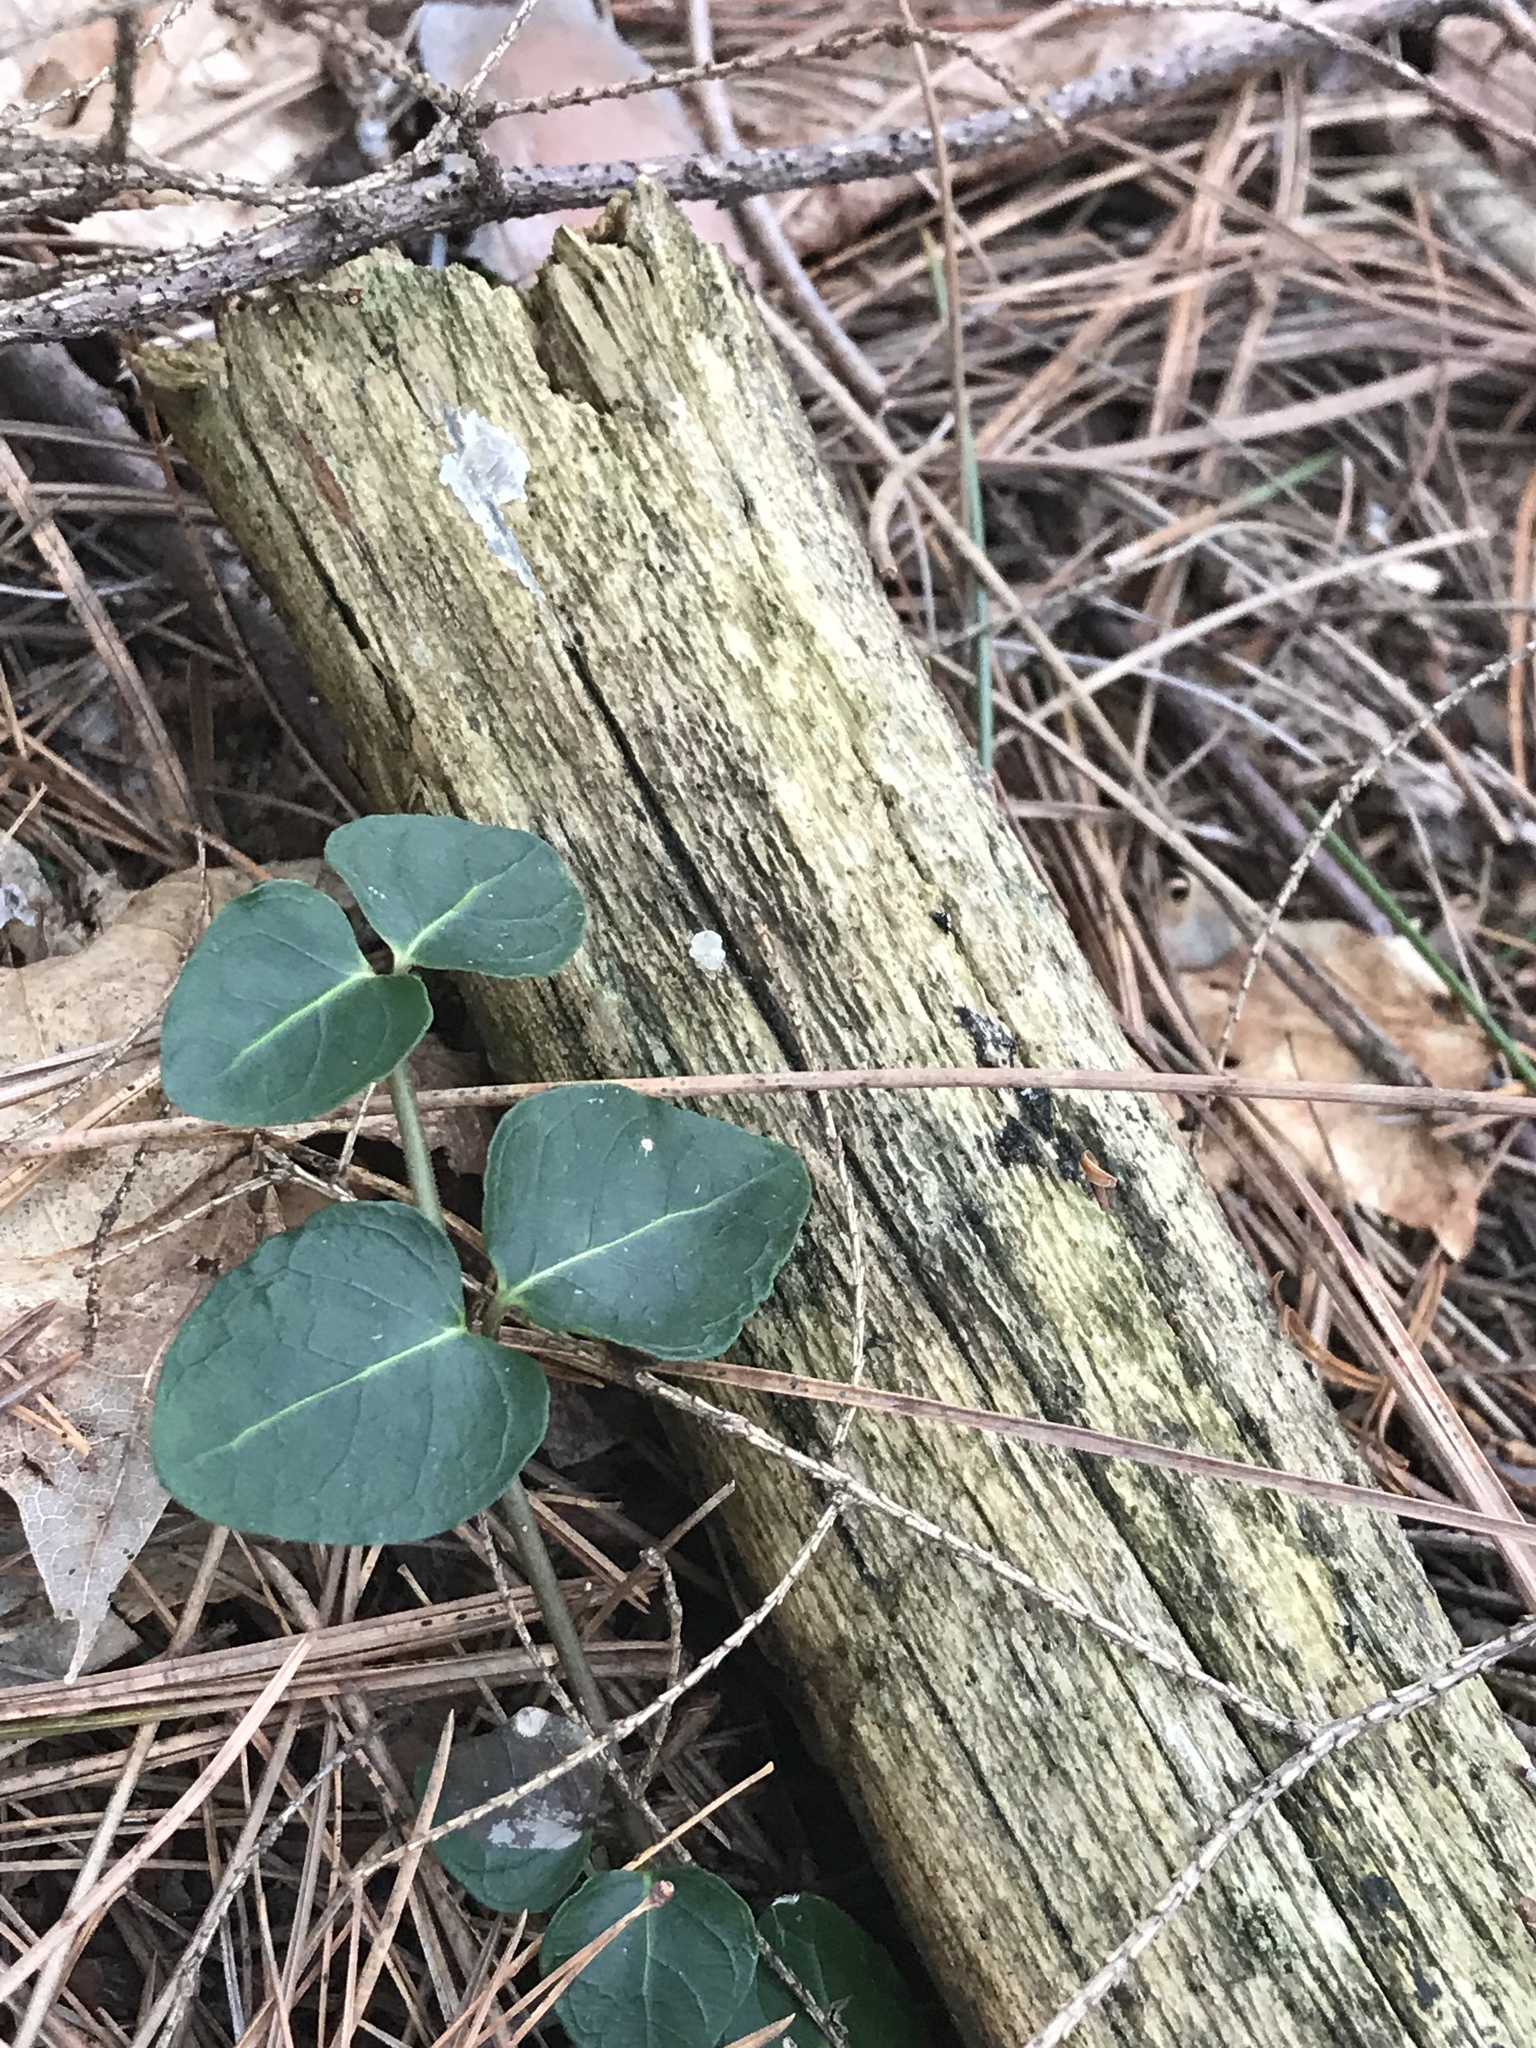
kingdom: Plantae
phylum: Tracheophyta
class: Magnoliopsida
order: Gentianales
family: Rubiaceae
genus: Mitchella
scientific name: Mitchella repens
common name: Partridge-berry
